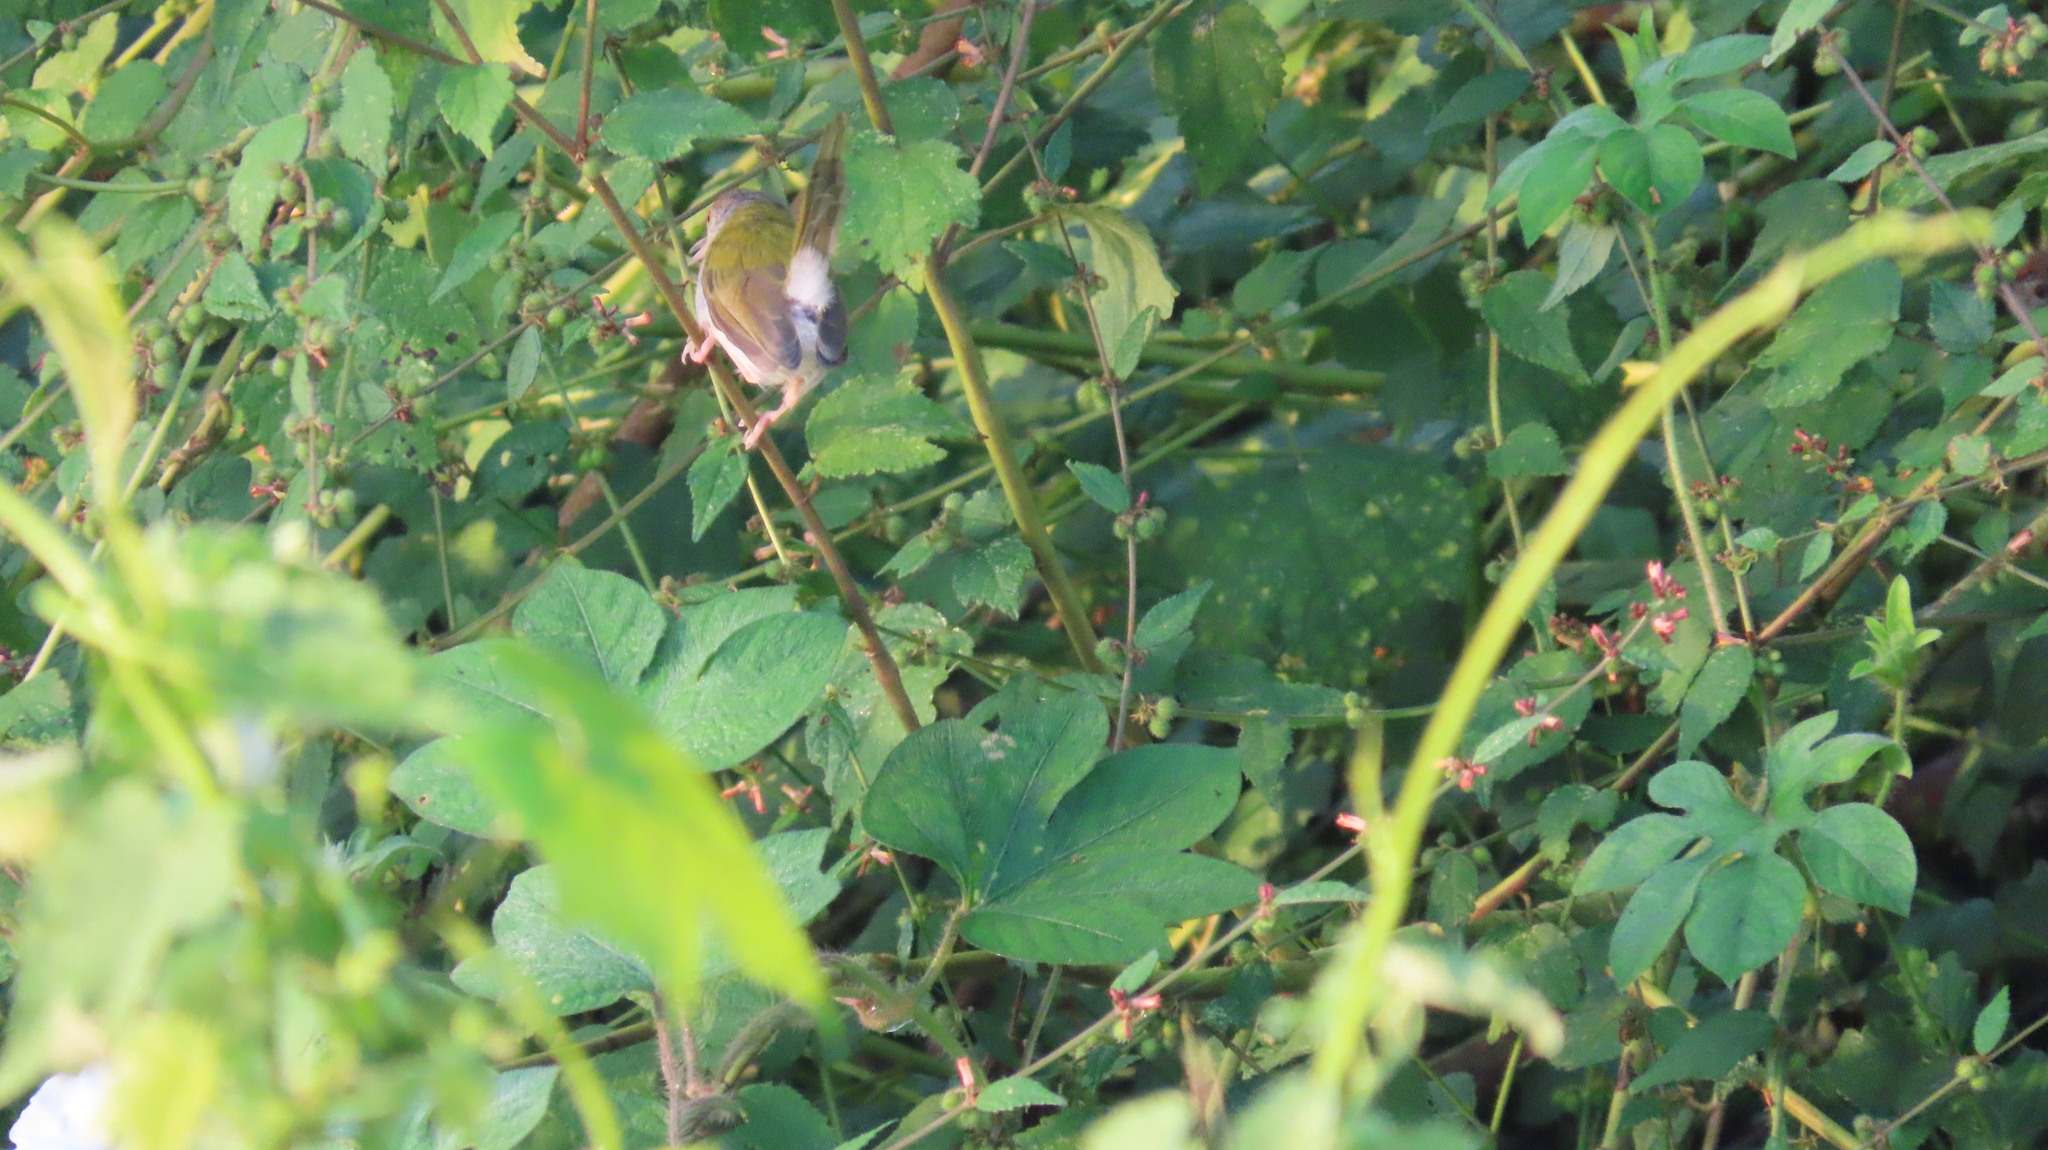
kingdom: Animalia
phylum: Chordata
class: Aves
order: Passeriformes
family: Cisticolidae
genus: Orthotomus
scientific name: Orthotomus sutorius
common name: Common tailorbird
